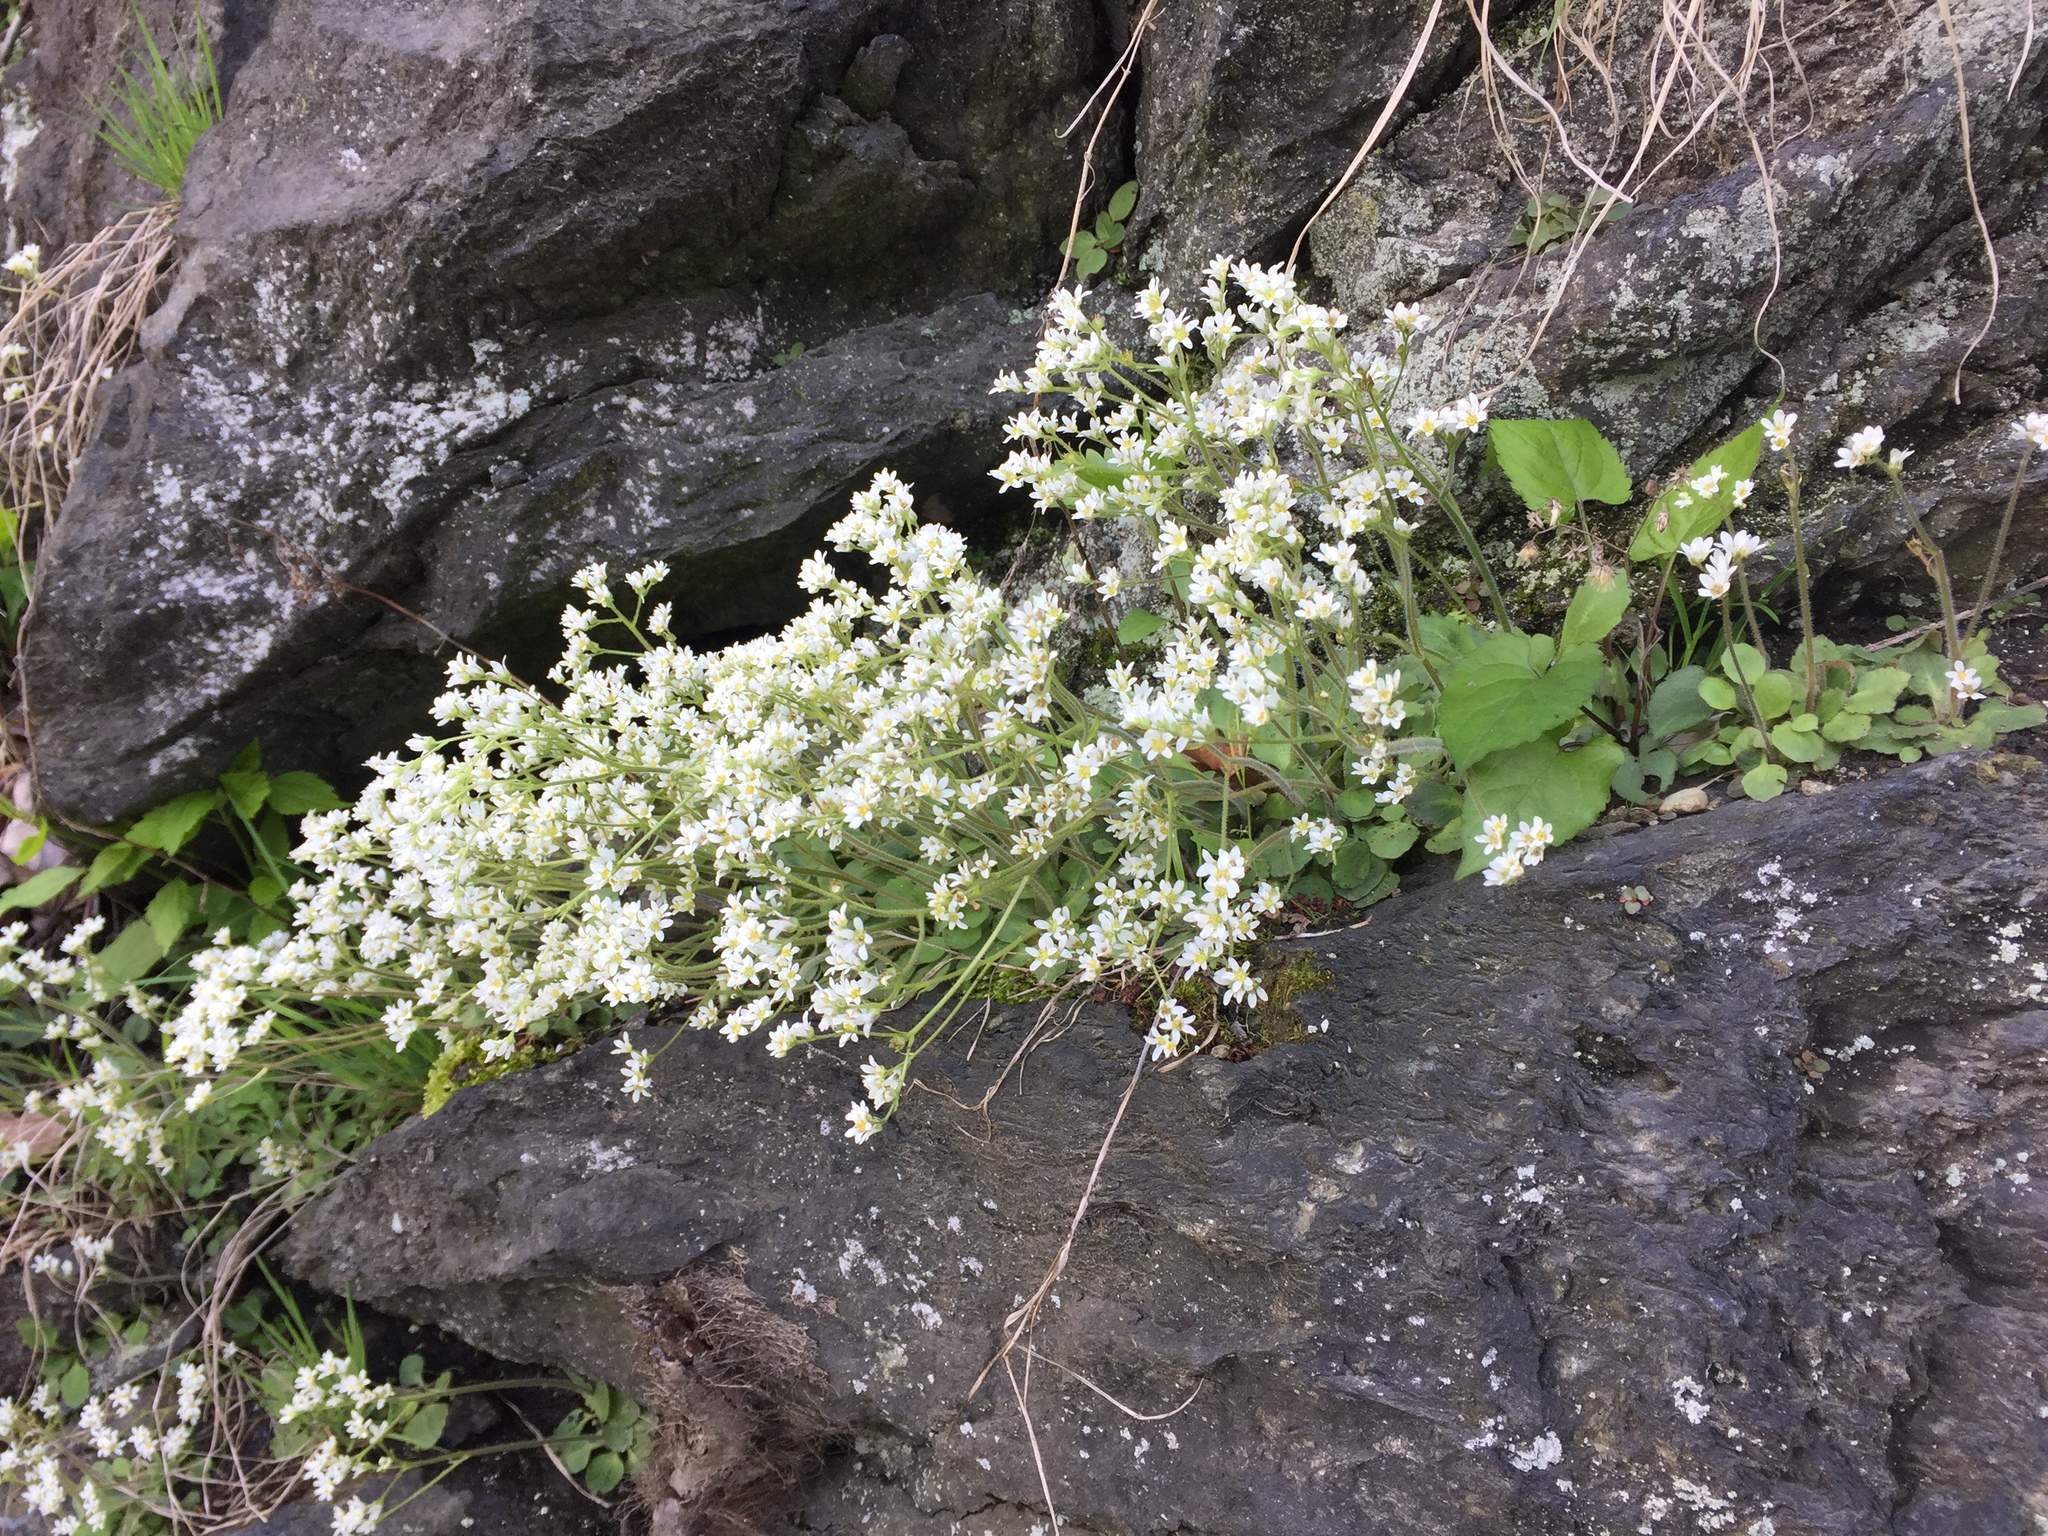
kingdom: Plantae
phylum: Tracheophyta
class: Magnoliopsida
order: Saxifragales
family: Saxifragaceae
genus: Micranthes
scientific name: Micranthes virginiensis
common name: Early saxifrage
